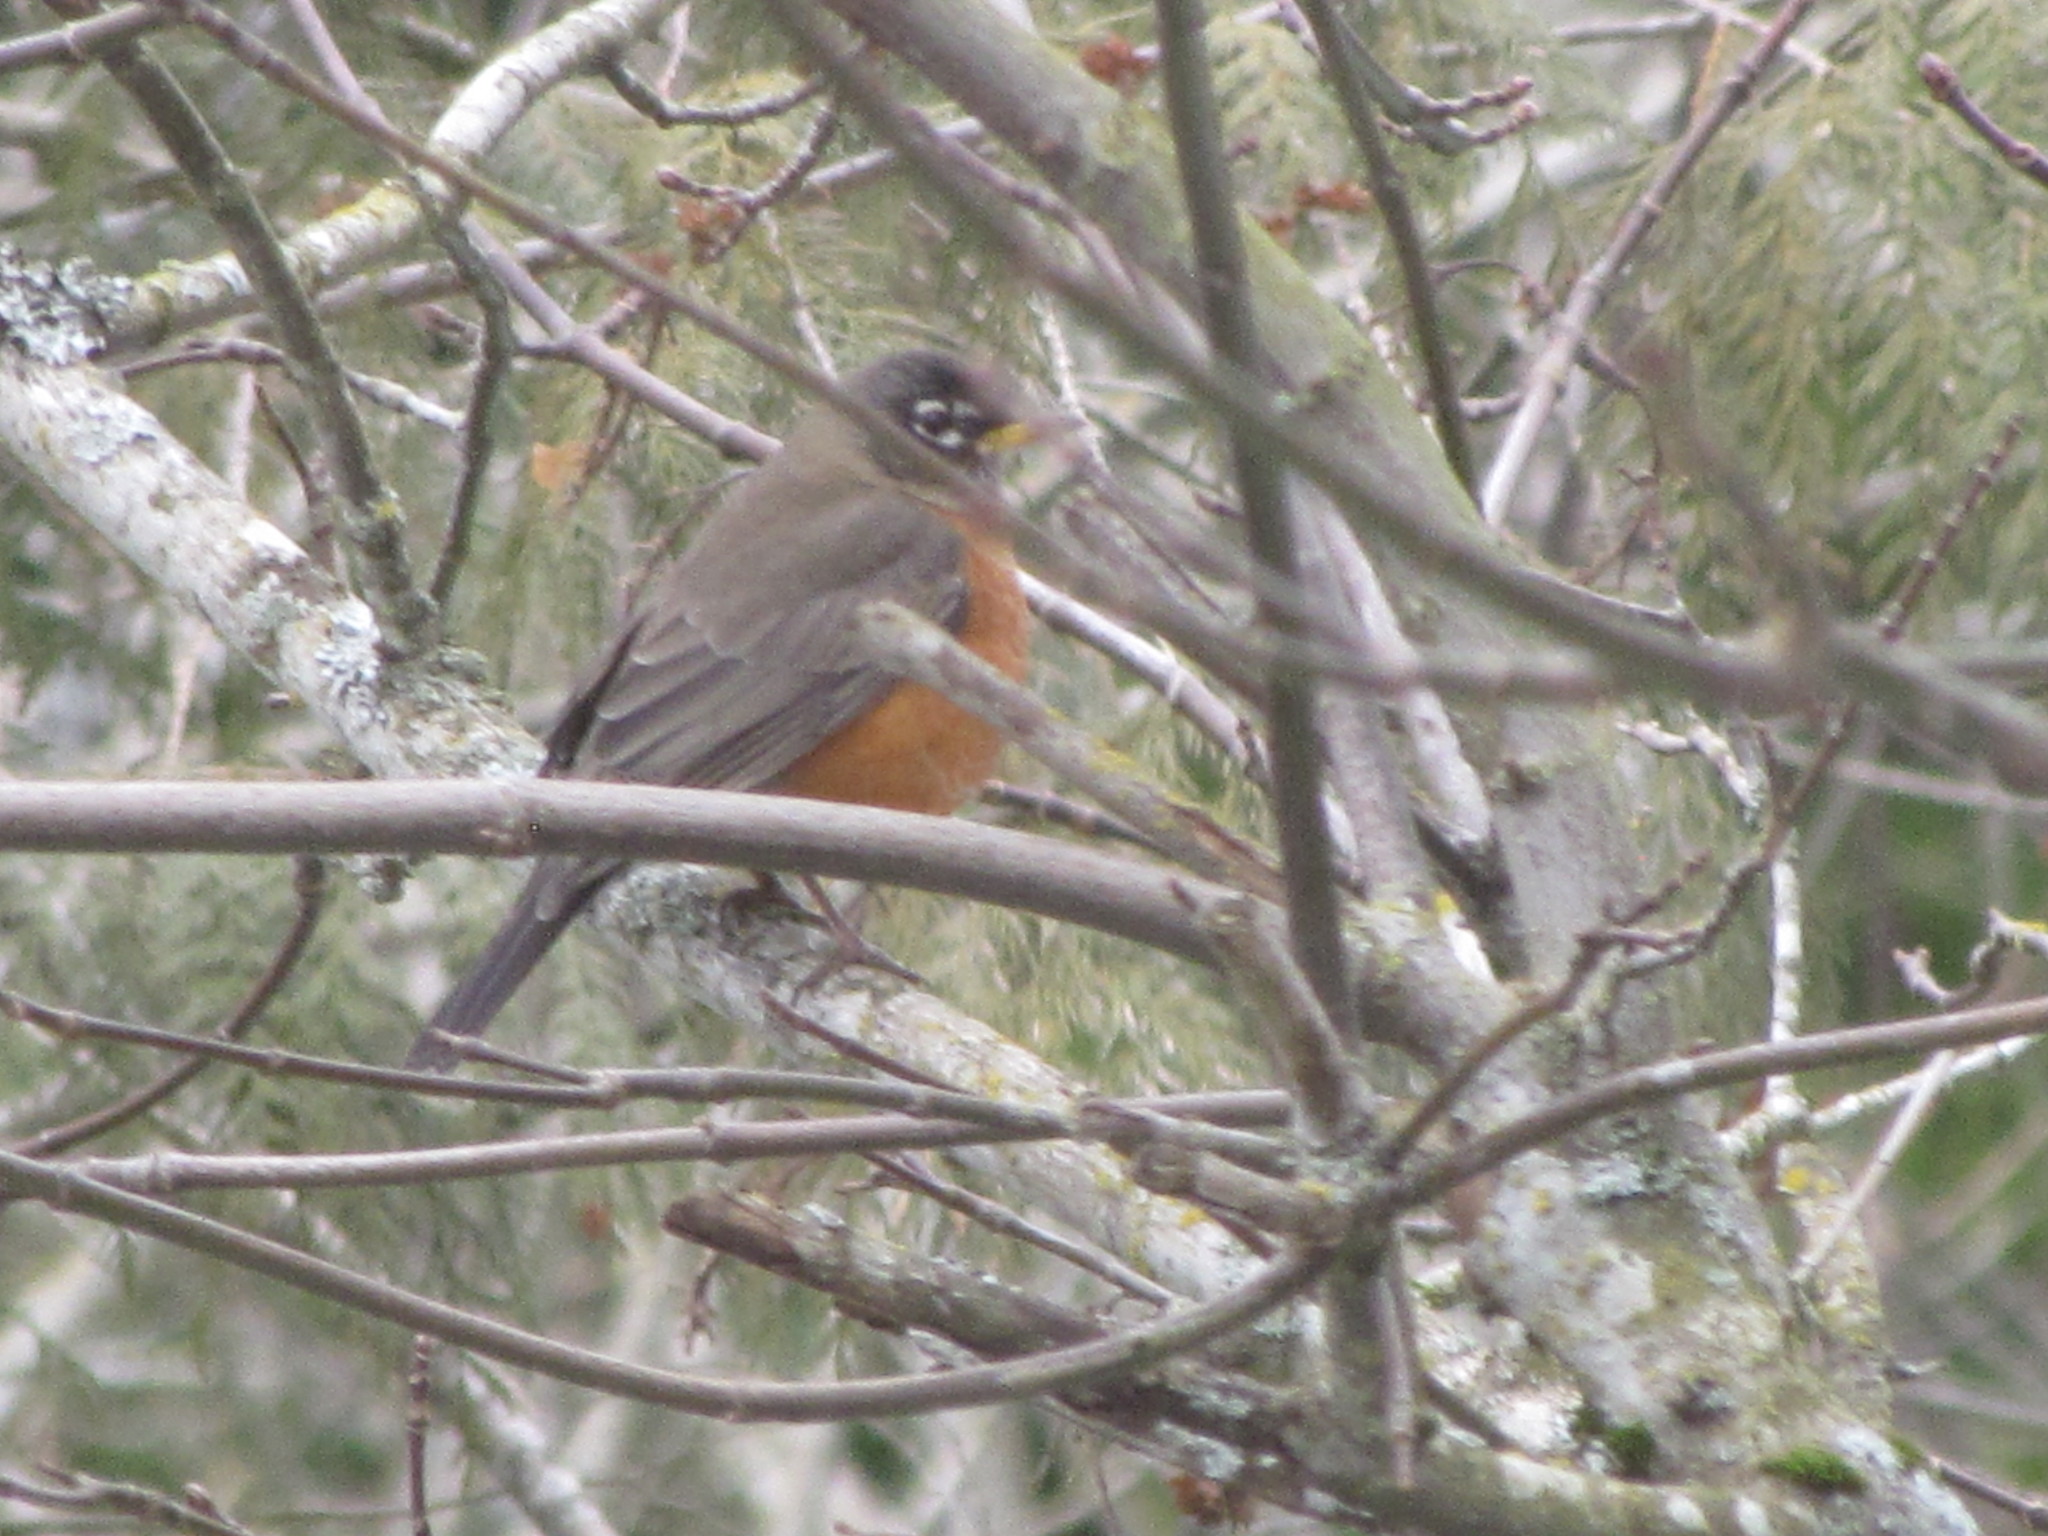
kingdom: Animalia
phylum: Chordata
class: Aves
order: Passeriformes
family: Turdidae
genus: Turdus
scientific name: Turdus migratorius
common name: American robin
